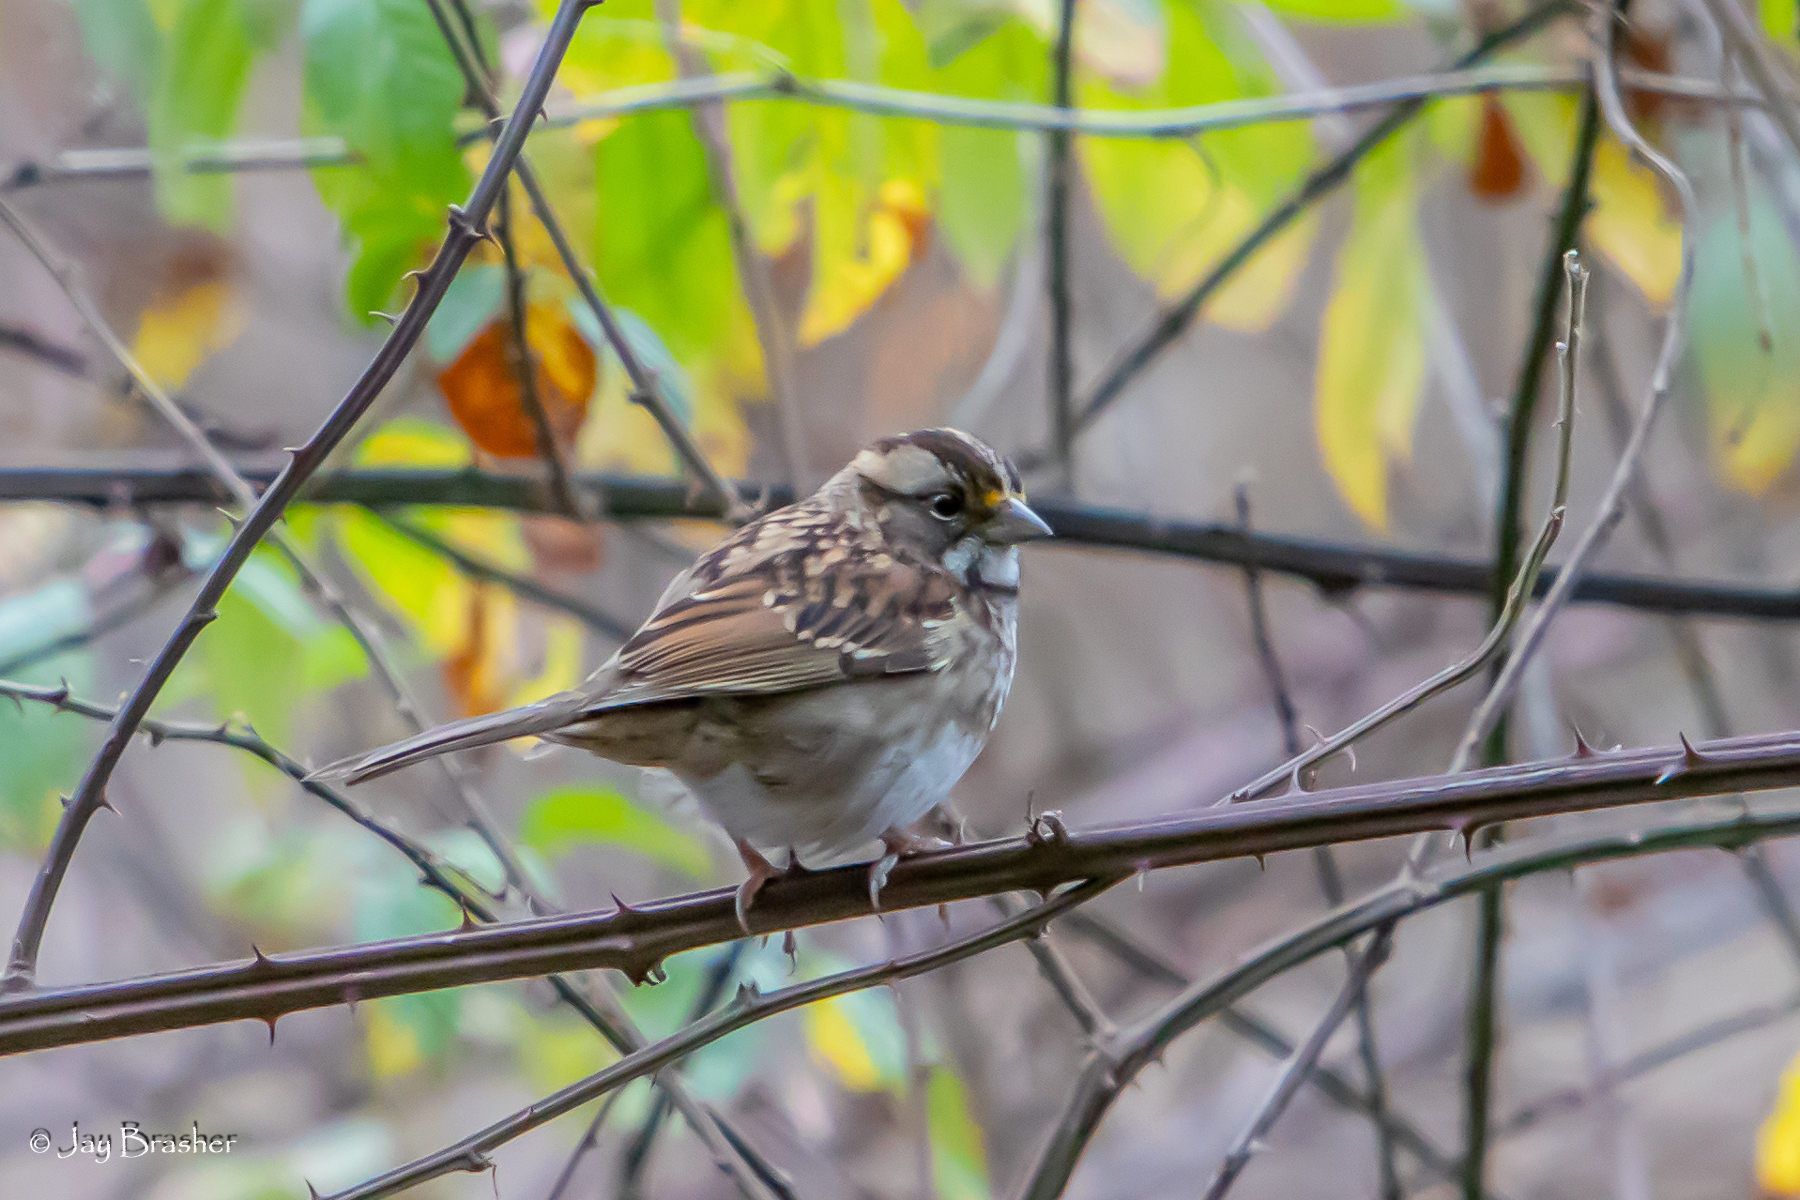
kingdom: Animalia
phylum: Chordata
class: Aves
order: Passeriformes
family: Passerellidae
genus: Zonotrichia
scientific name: Zonotrichia albicollis
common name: White-throated sparrow
